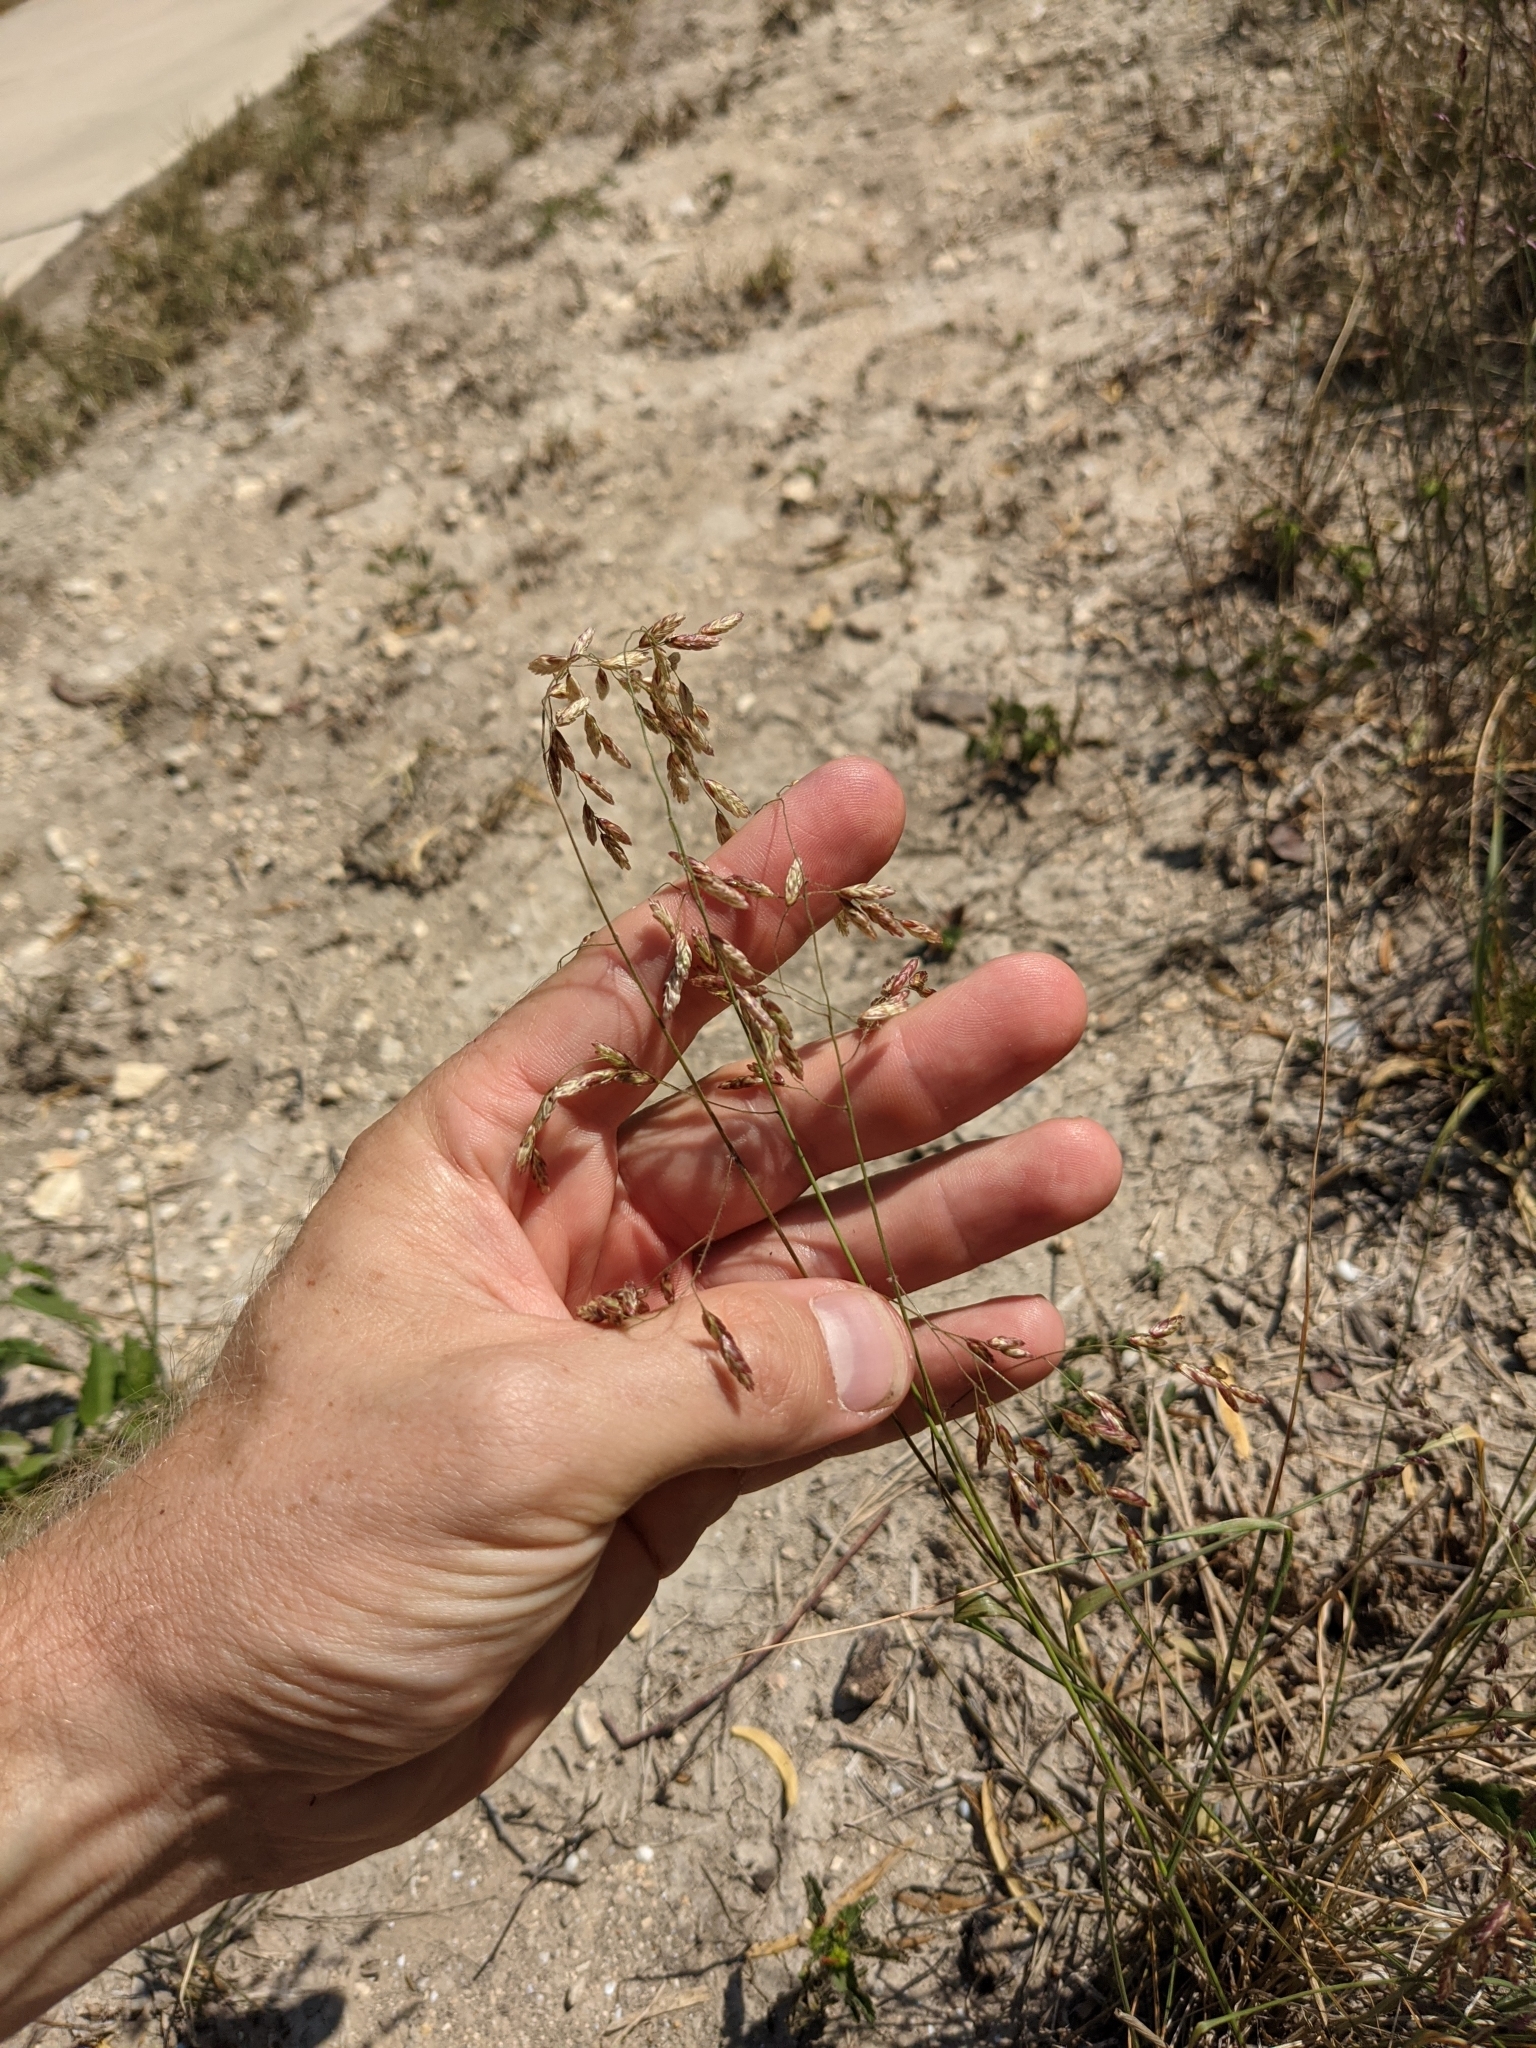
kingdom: Plantae
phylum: Tracheophyta
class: Liliopsida
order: Poales
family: Poaceae
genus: Tridens
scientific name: Tridens texanus
